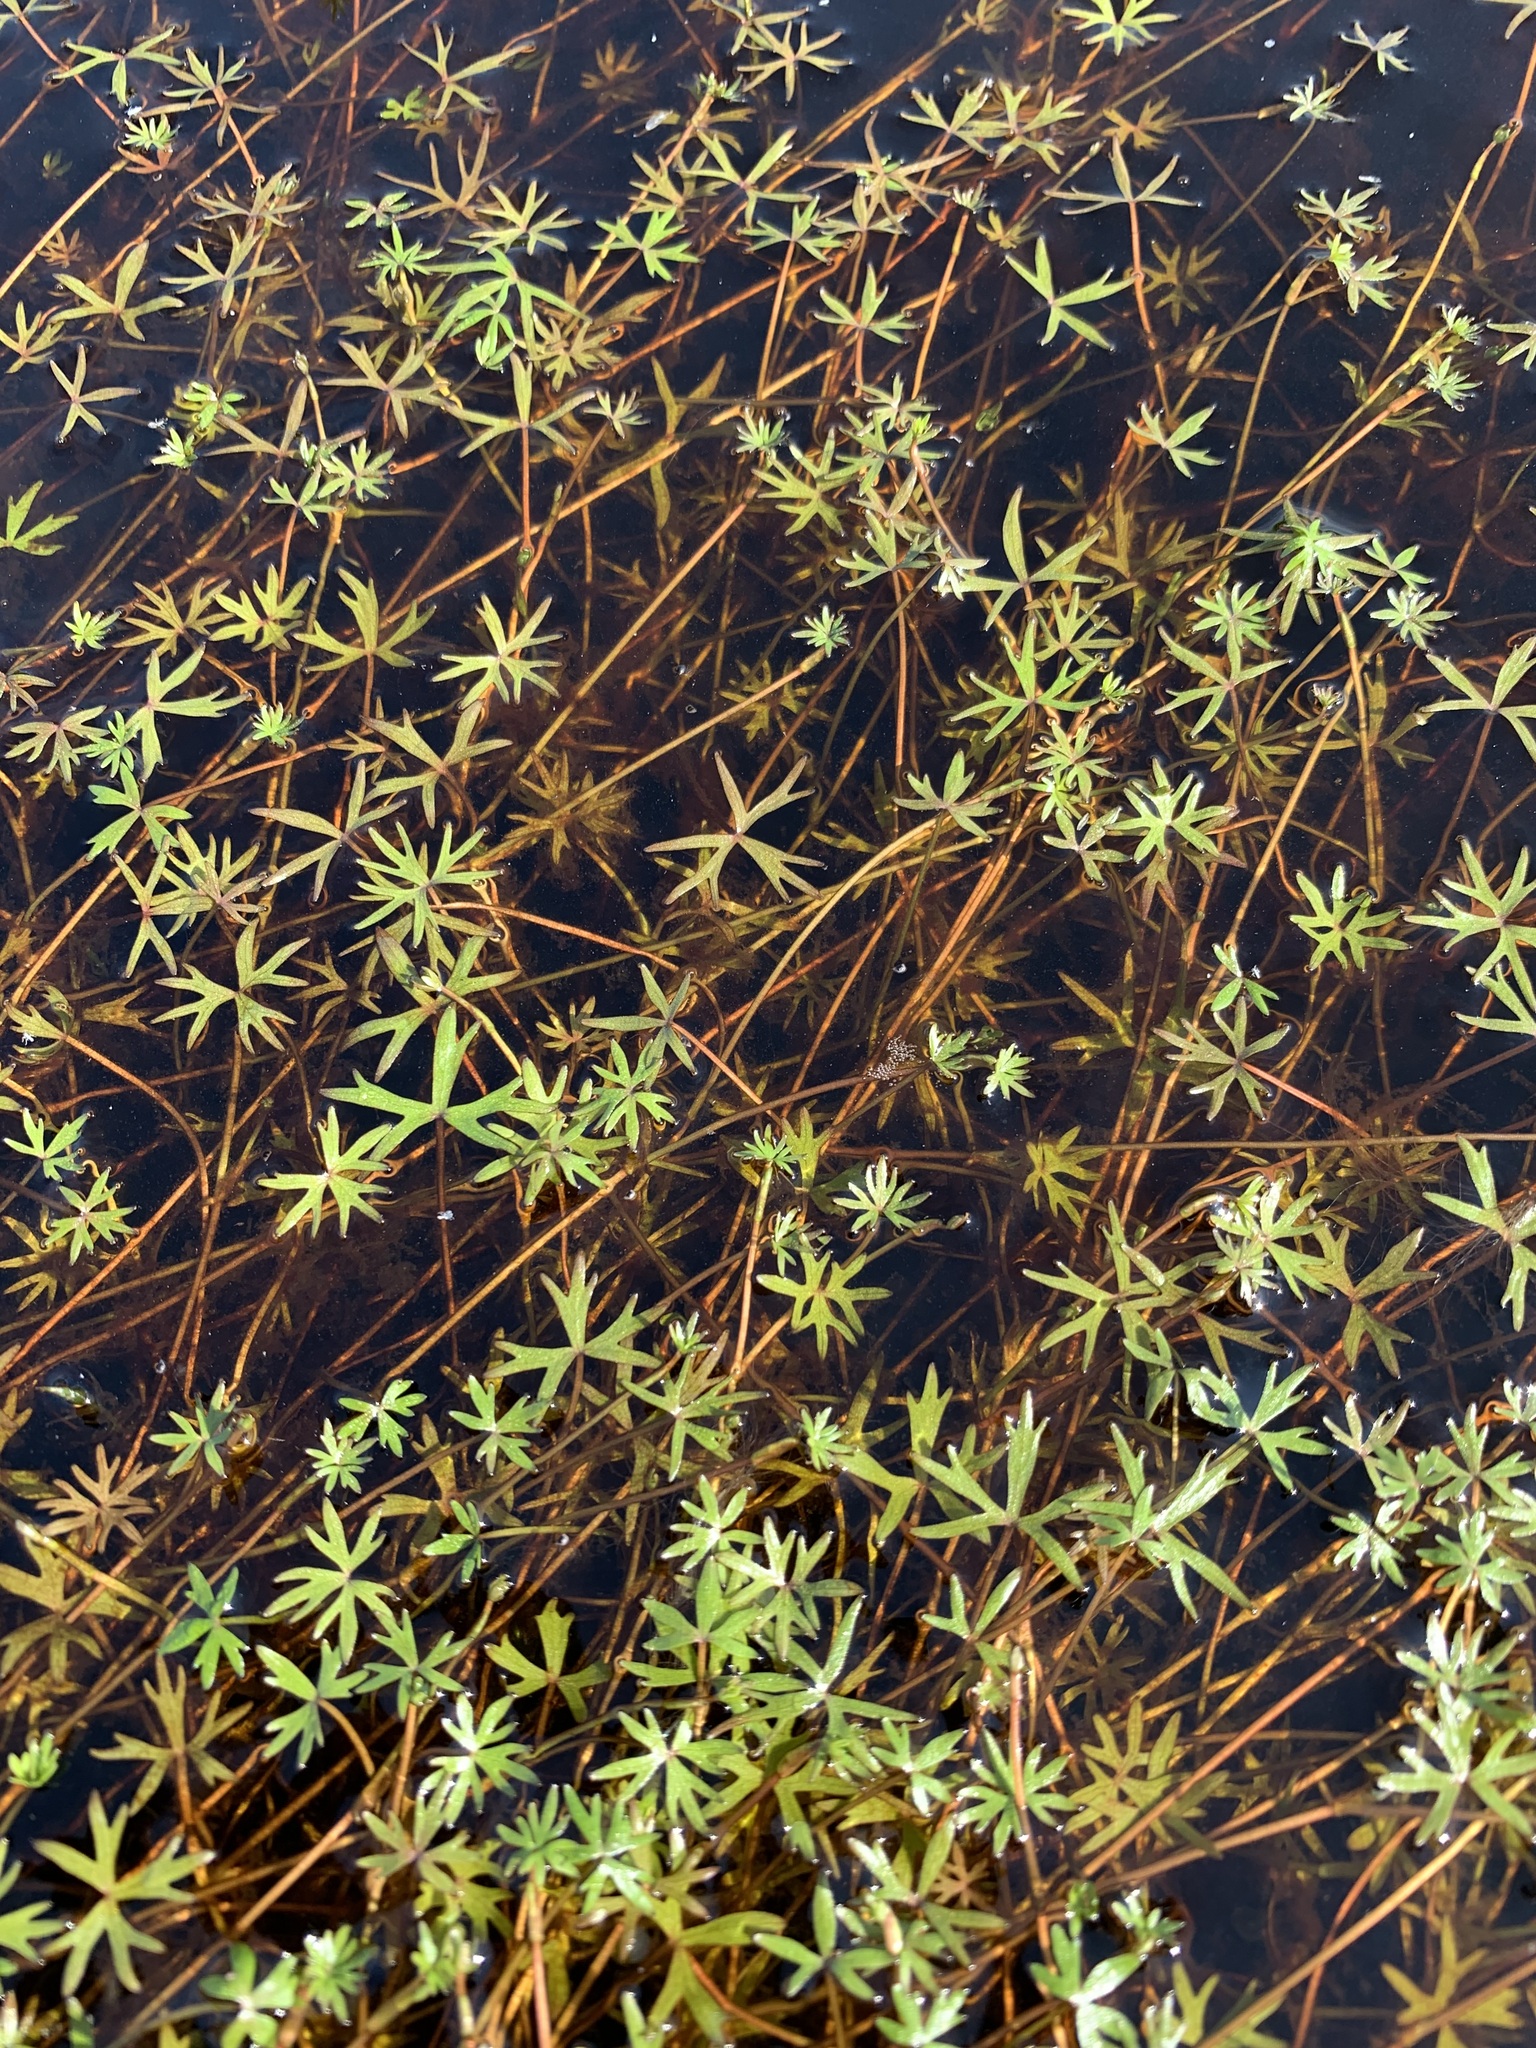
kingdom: Plantae
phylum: Tracheophyta
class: Magnoliopsida
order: Ranunculales
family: Ranunculaceae
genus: Ranunculus
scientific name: Ranunculus gmelinii
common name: Gmelin's buttercup
